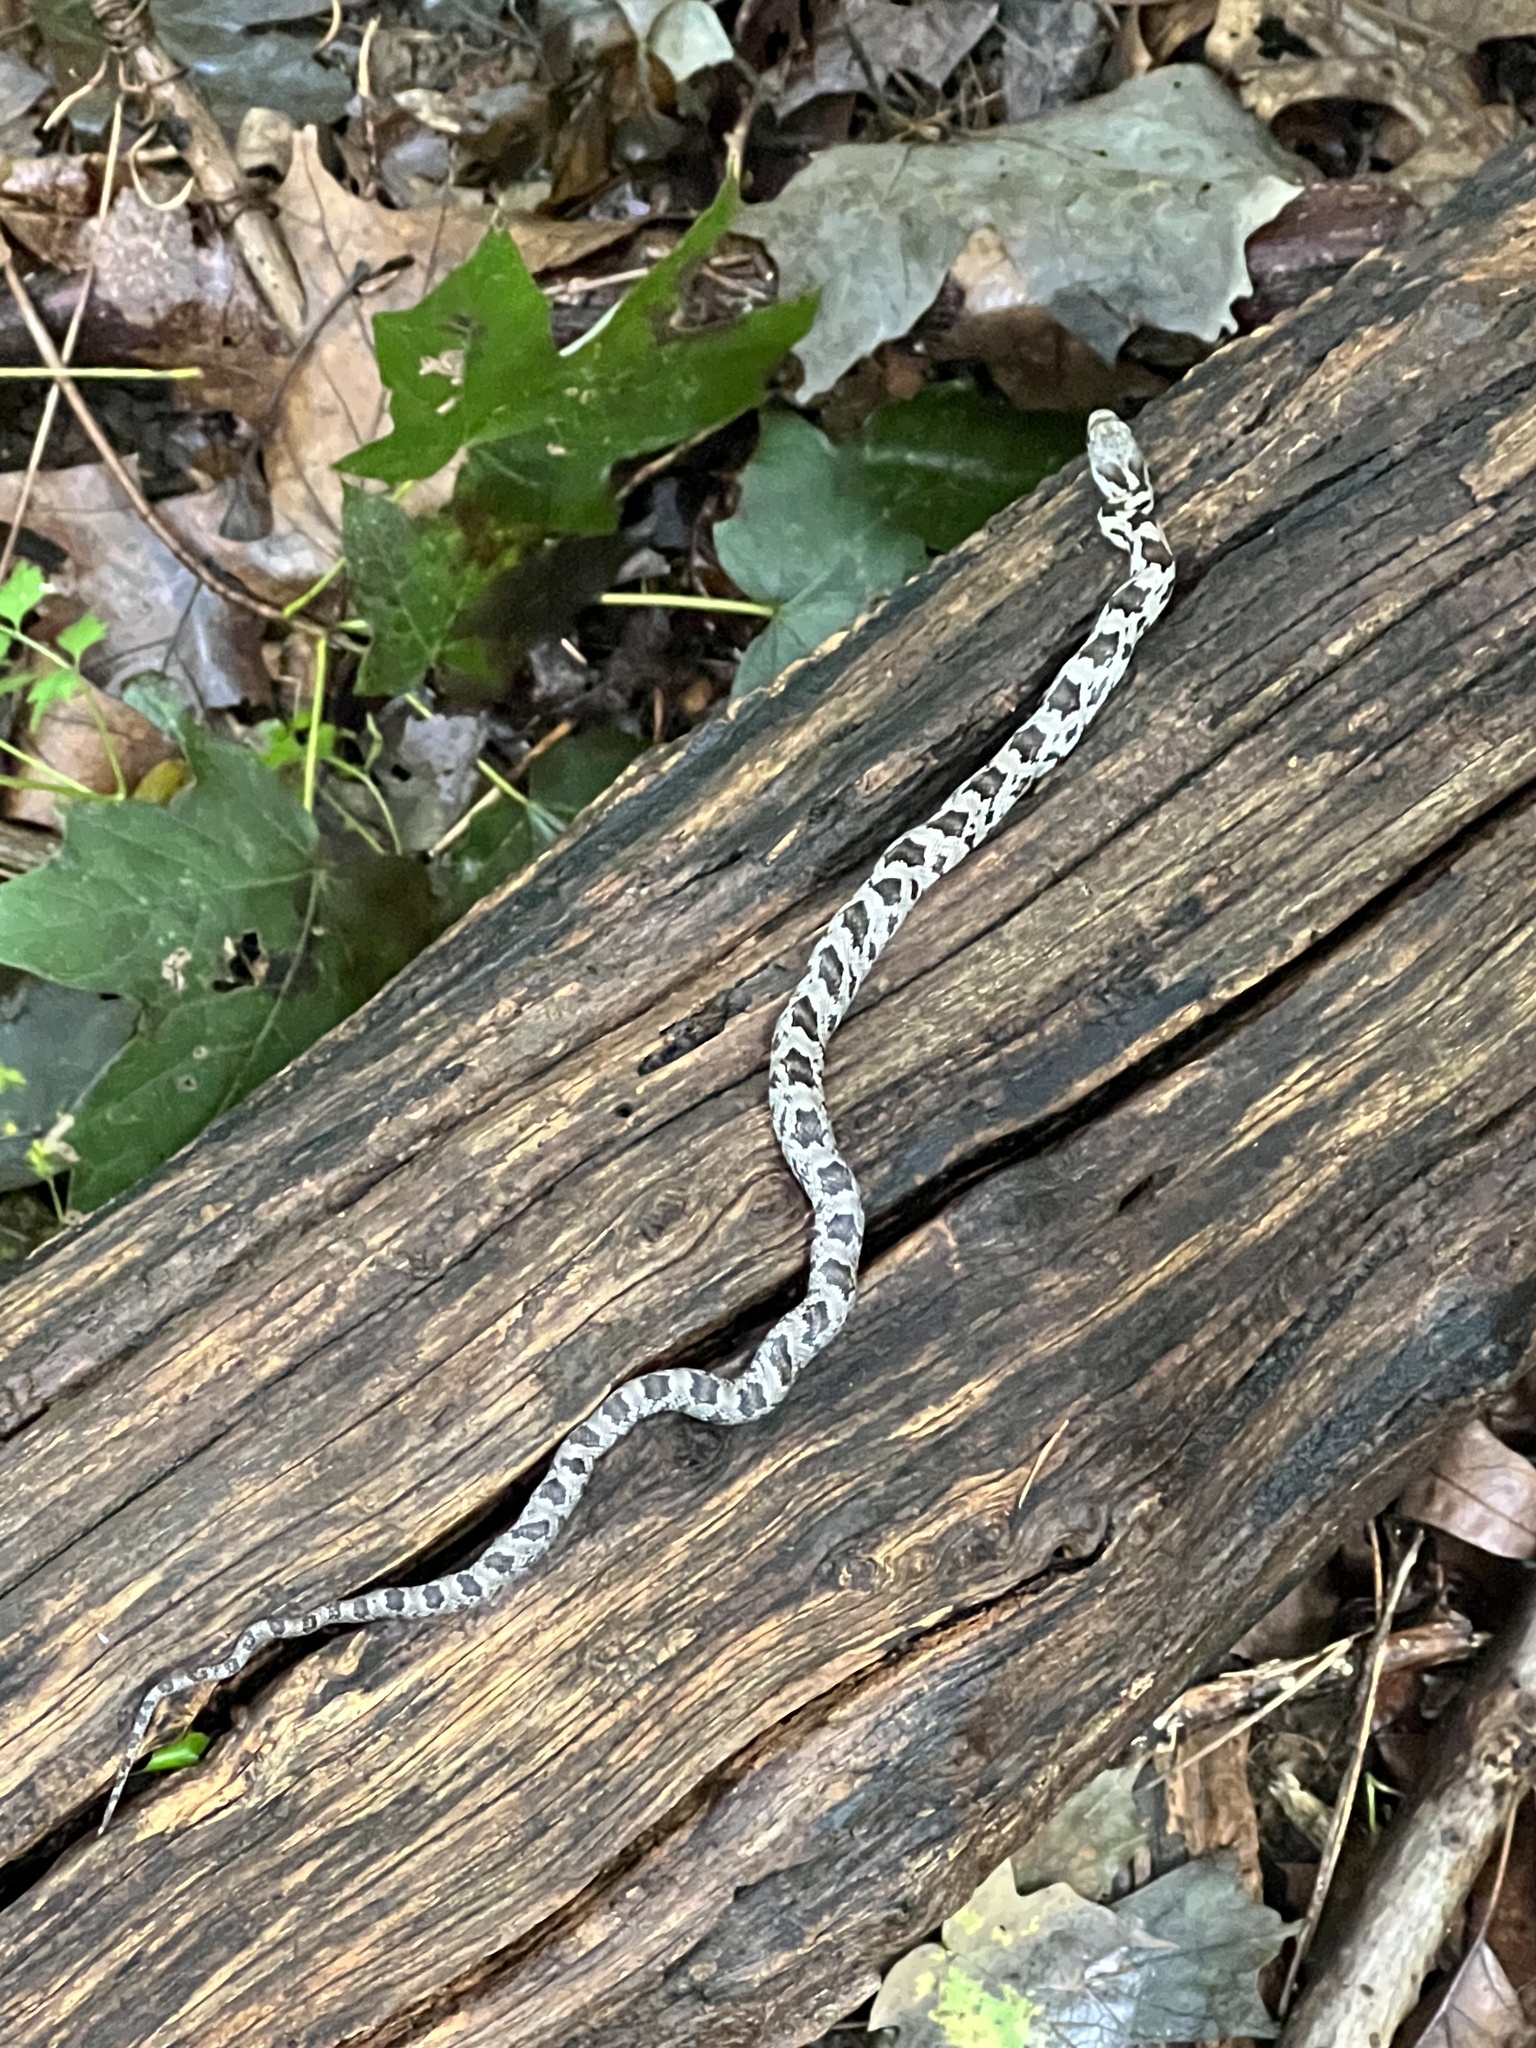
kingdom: Animalia
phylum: Chordata
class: Squamata
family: Colubridae
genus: Pantherophis
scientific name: Pantherophis alleghaniensis
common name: Eastern rat snake
